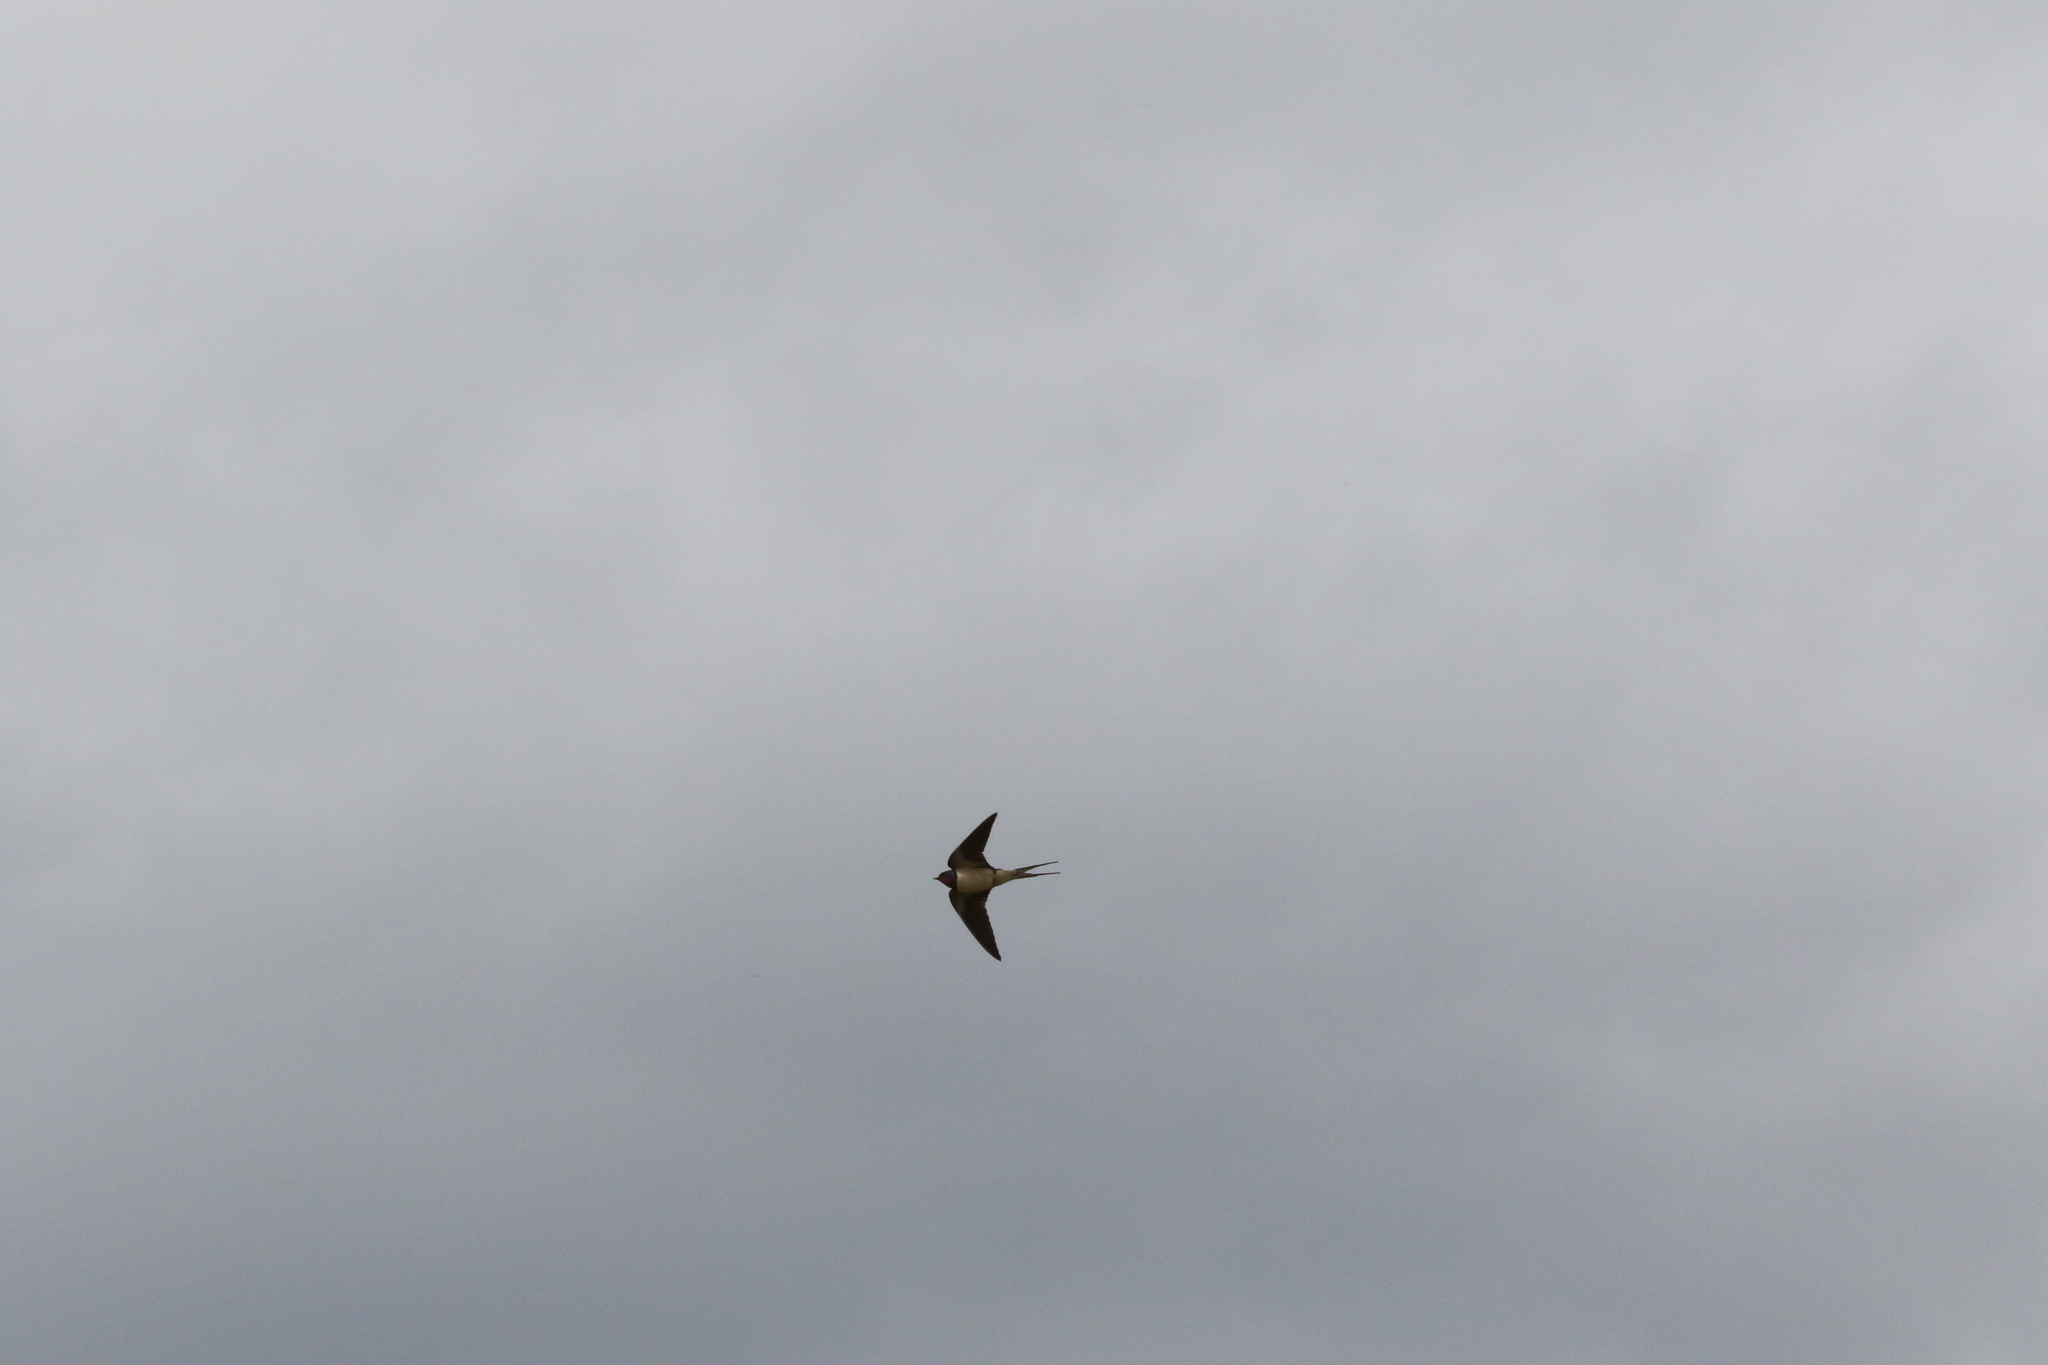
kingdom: Animalia
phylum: Chordata
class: Aves
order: Passeriformes
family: Hirundinidae
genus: Hirundo
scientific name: Hirundo rustica
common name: Barn swallow
